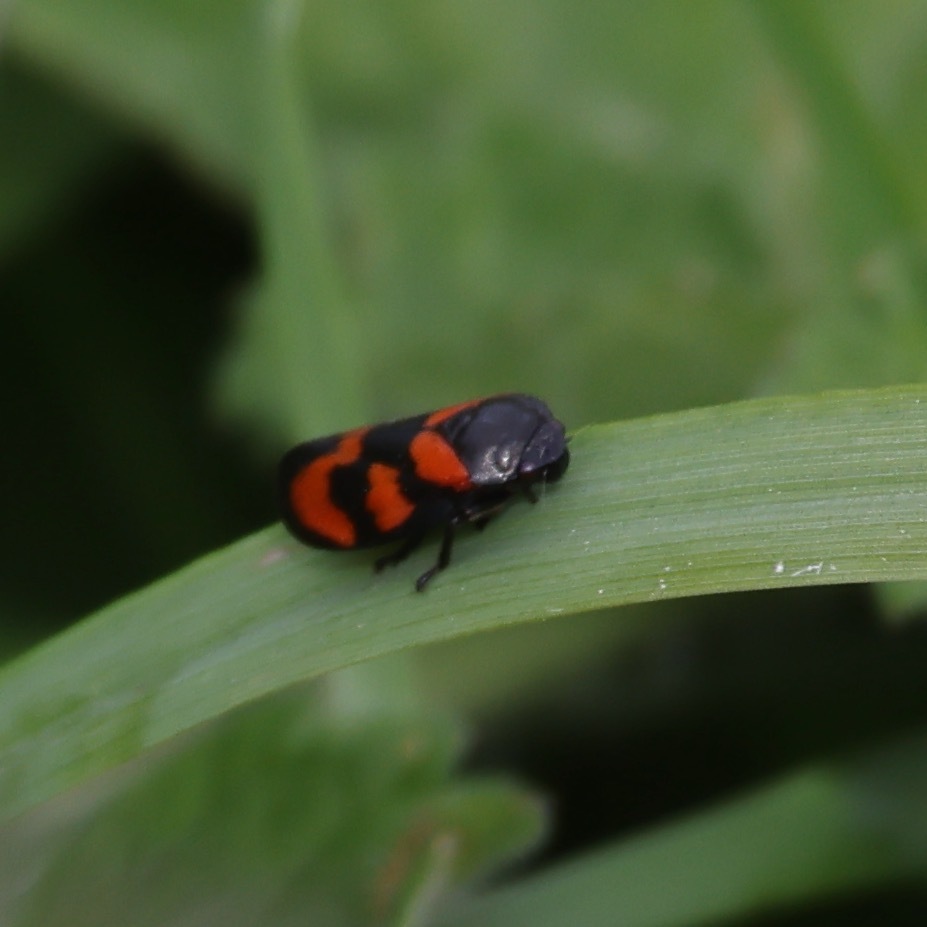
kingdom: Animalia
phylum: Arthropoda
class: Insecta
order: Hemiptera
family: Cercopidae
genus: Cercopis
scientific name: Cercopis vulnerata
